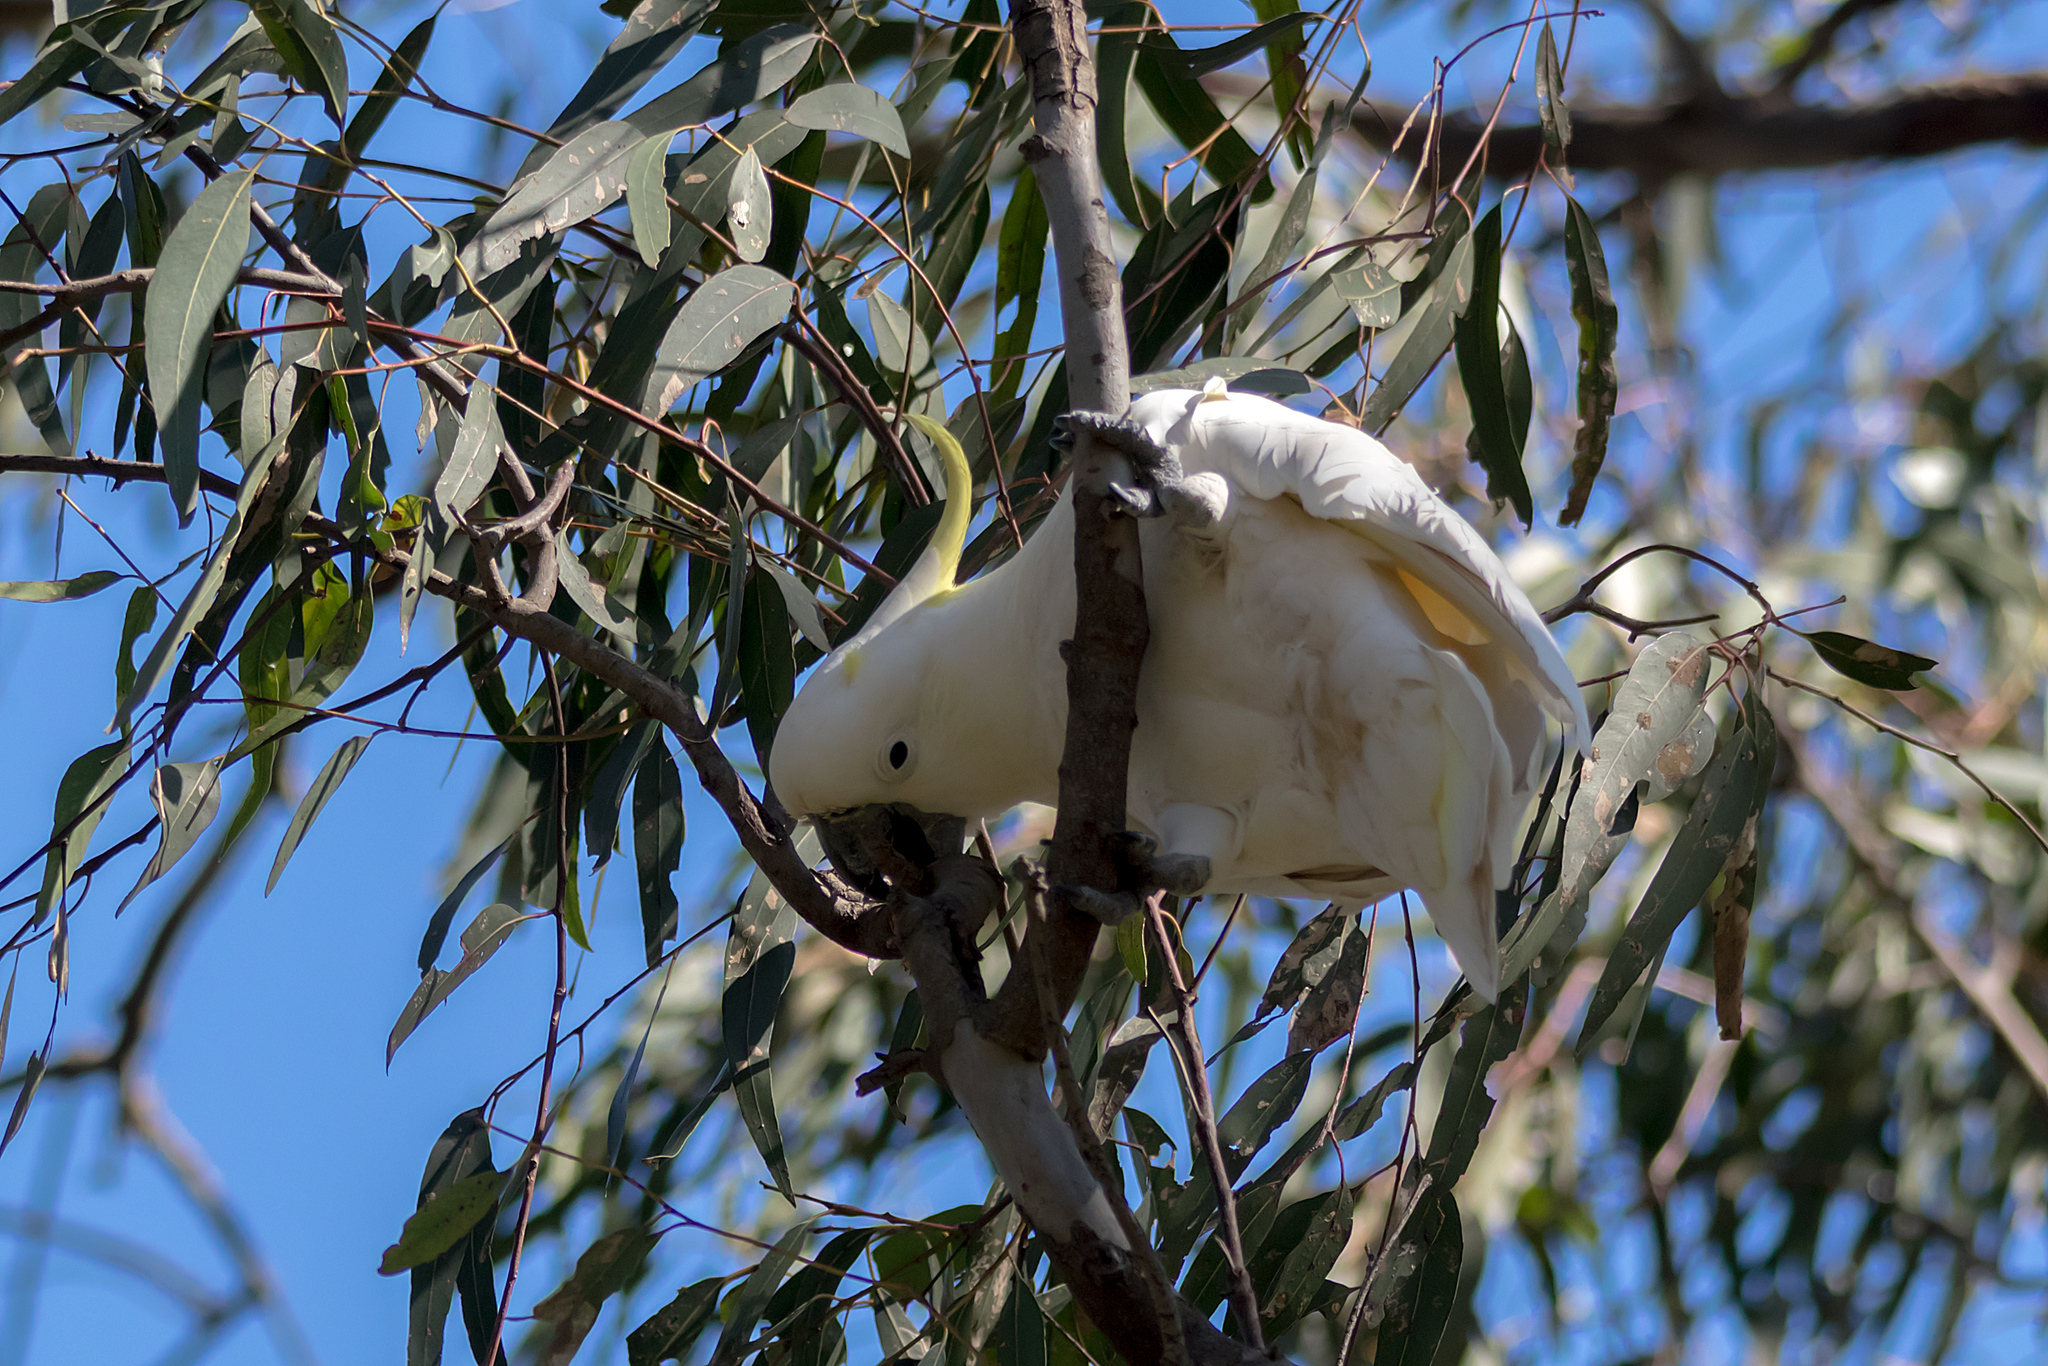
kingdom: Animalia
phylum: Chordata
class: Aves
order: Psittaciformes
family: Psittacidae
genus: Cacatua
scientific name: Cacatua galerita
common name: Sulphur-crested cockatoo
